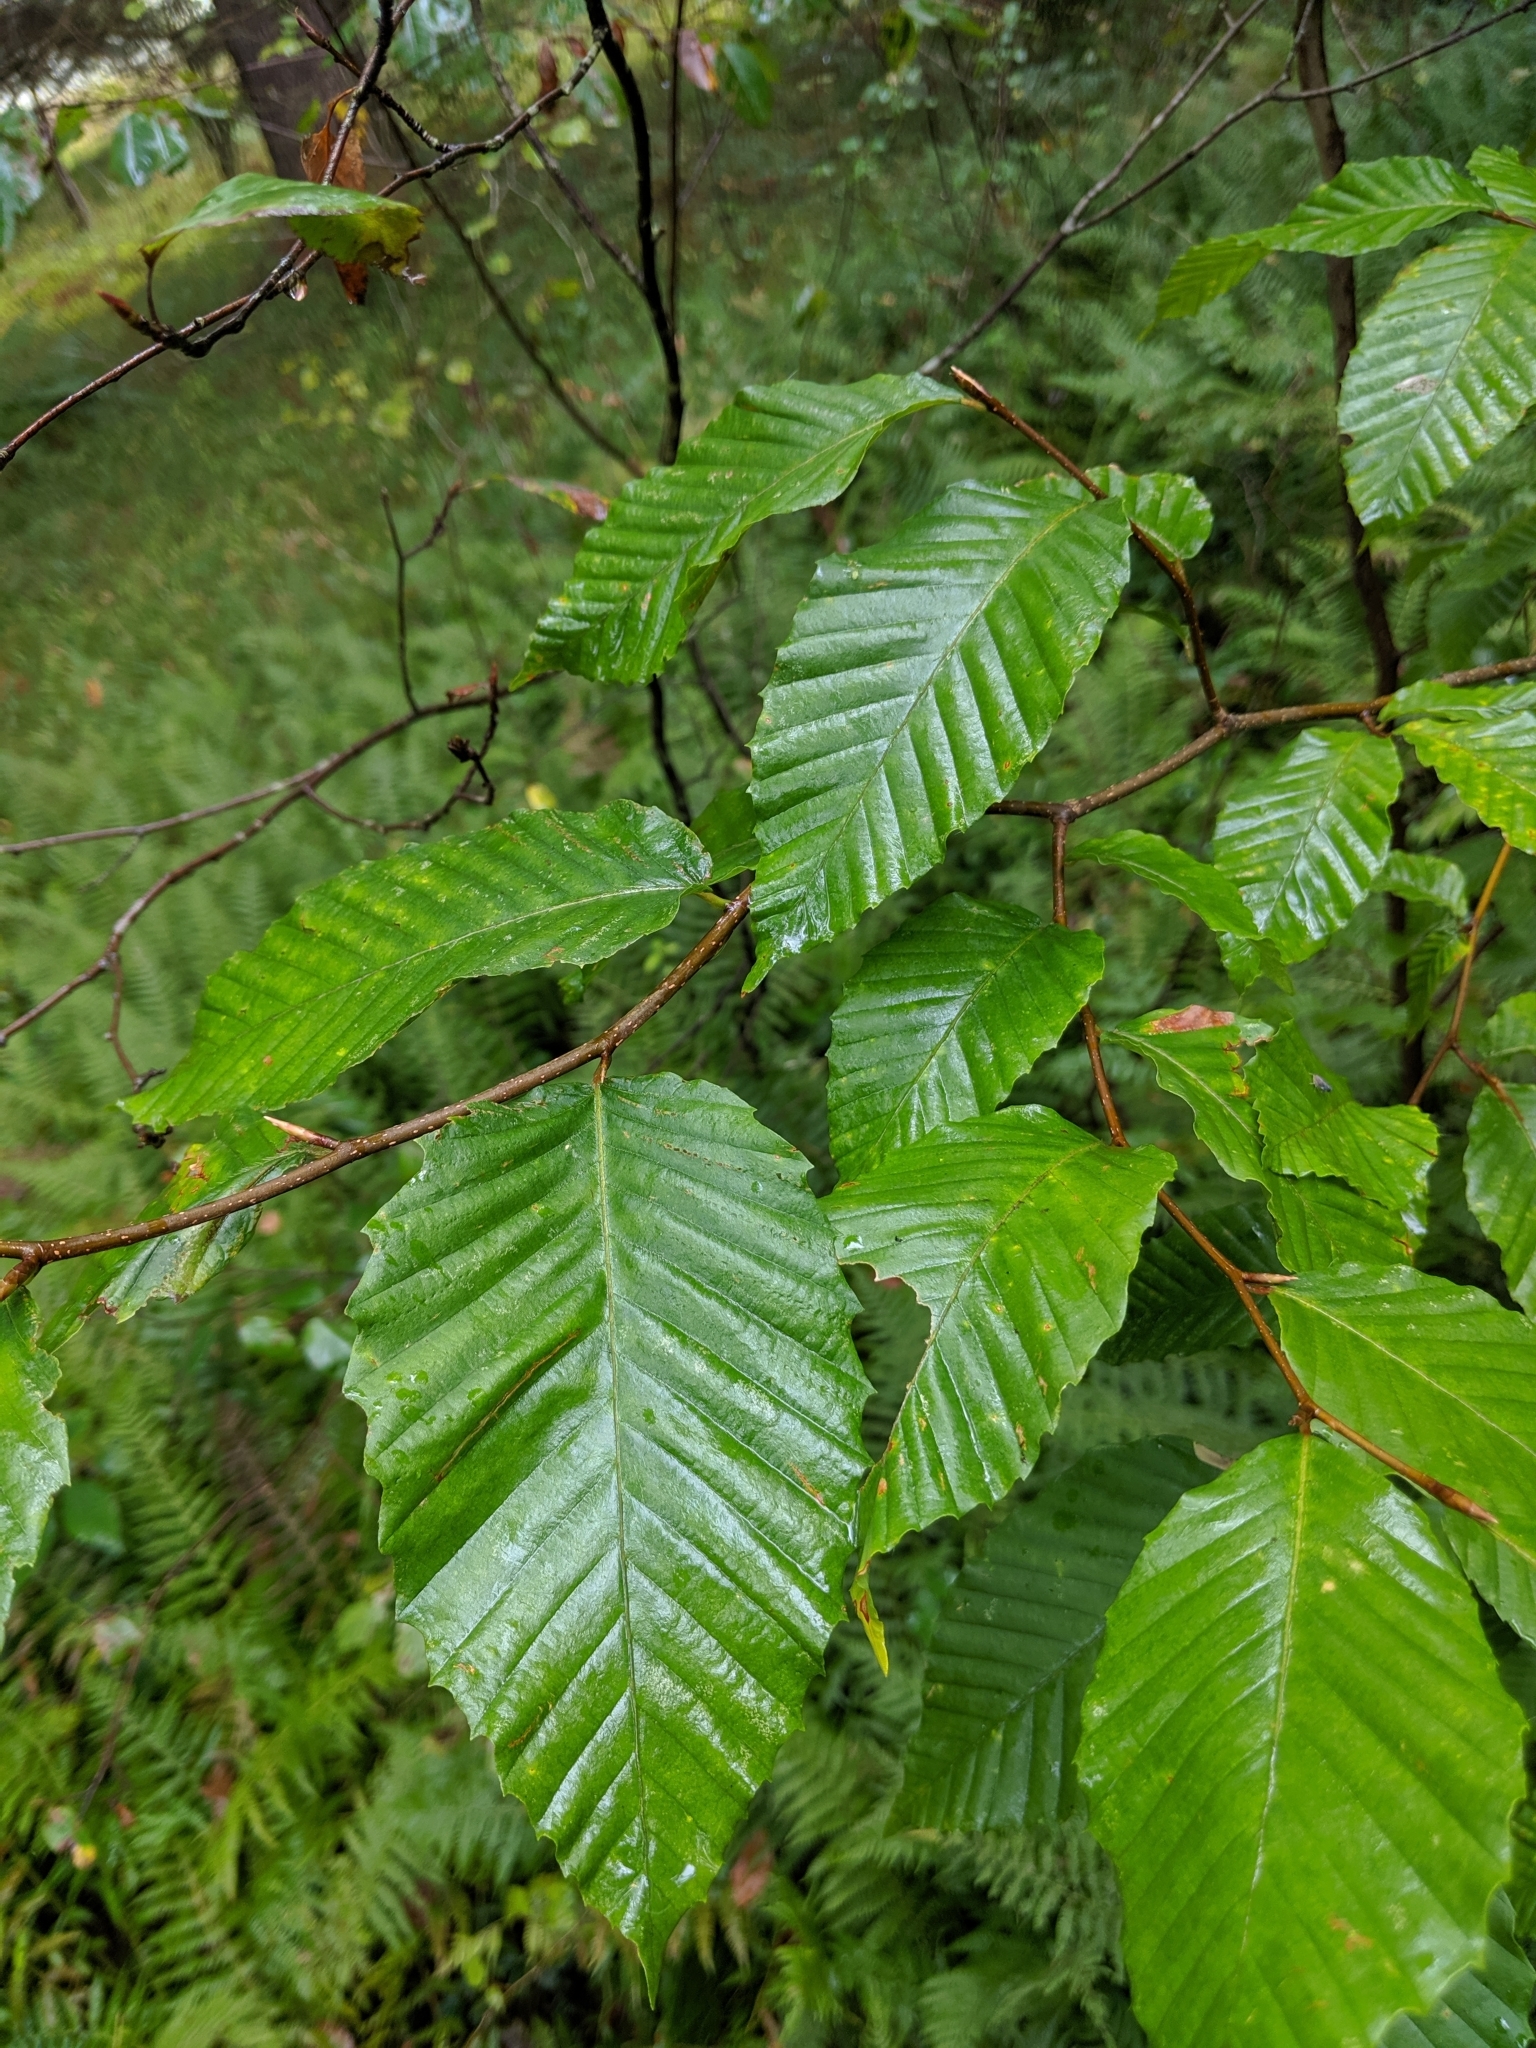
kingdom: Plantae
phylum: Tracheophyta
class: Magnoliopsida
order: Fagales
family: Fagaceae
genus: Fagus
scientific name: Fagus grandifolia
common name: American beech
